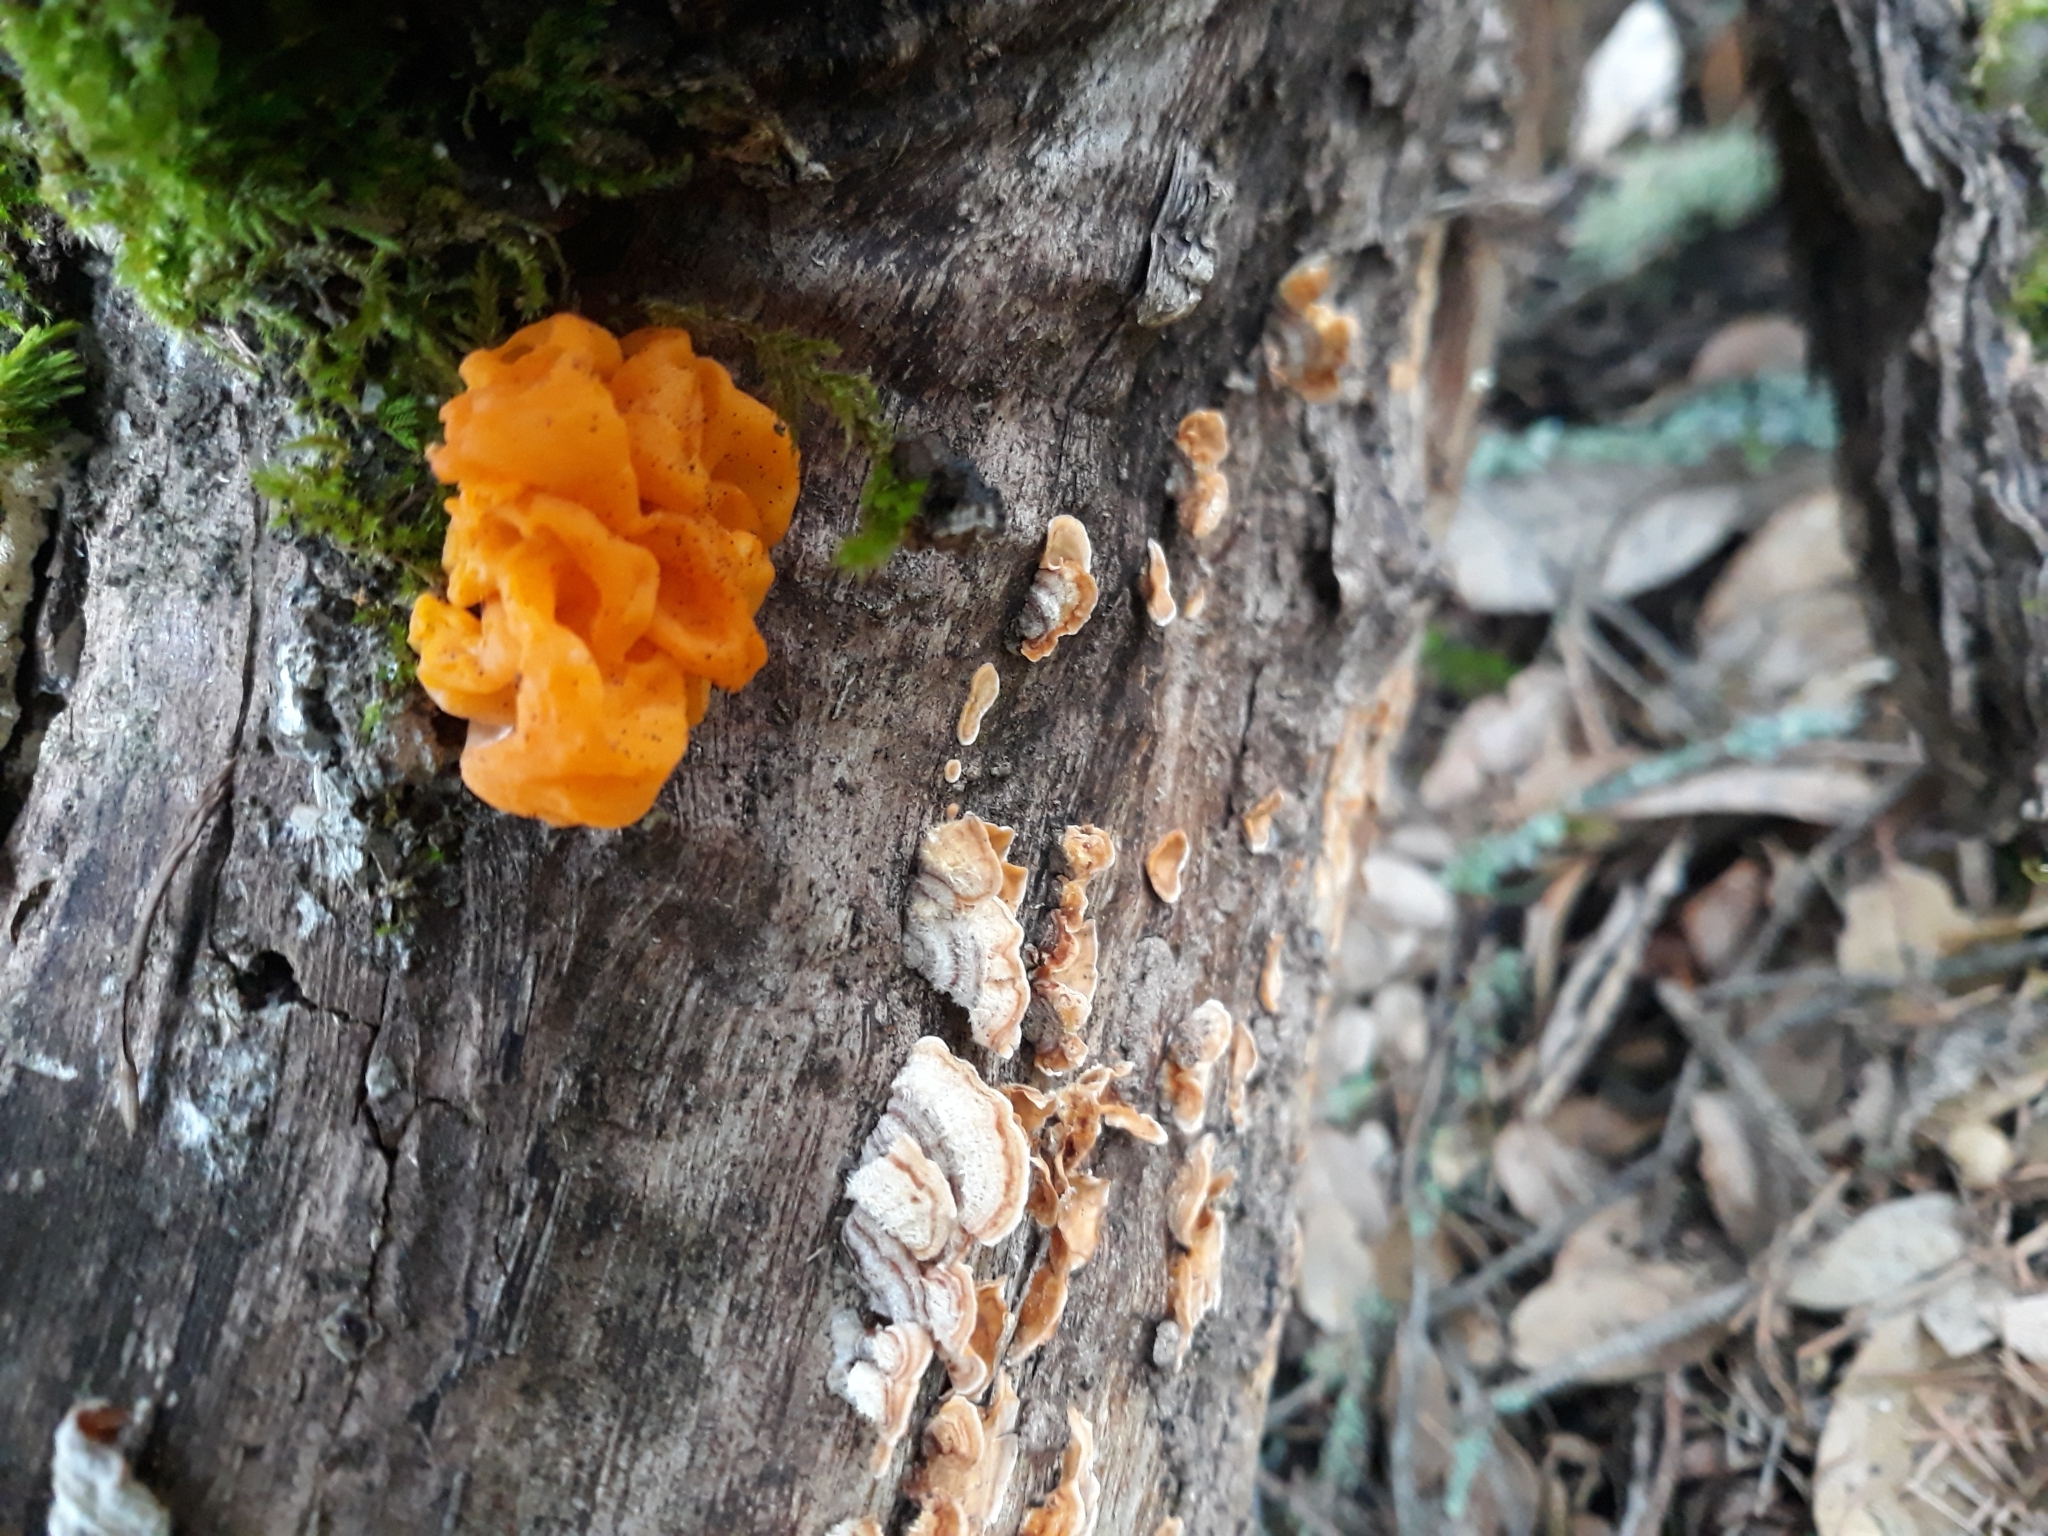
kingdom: Fungi
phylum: Basidiomycota
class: Tremellomycetes
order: Tremellales
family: Naemateliaceae
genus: Naematelia
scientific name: Naematelia aurantia
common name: Golden ear
